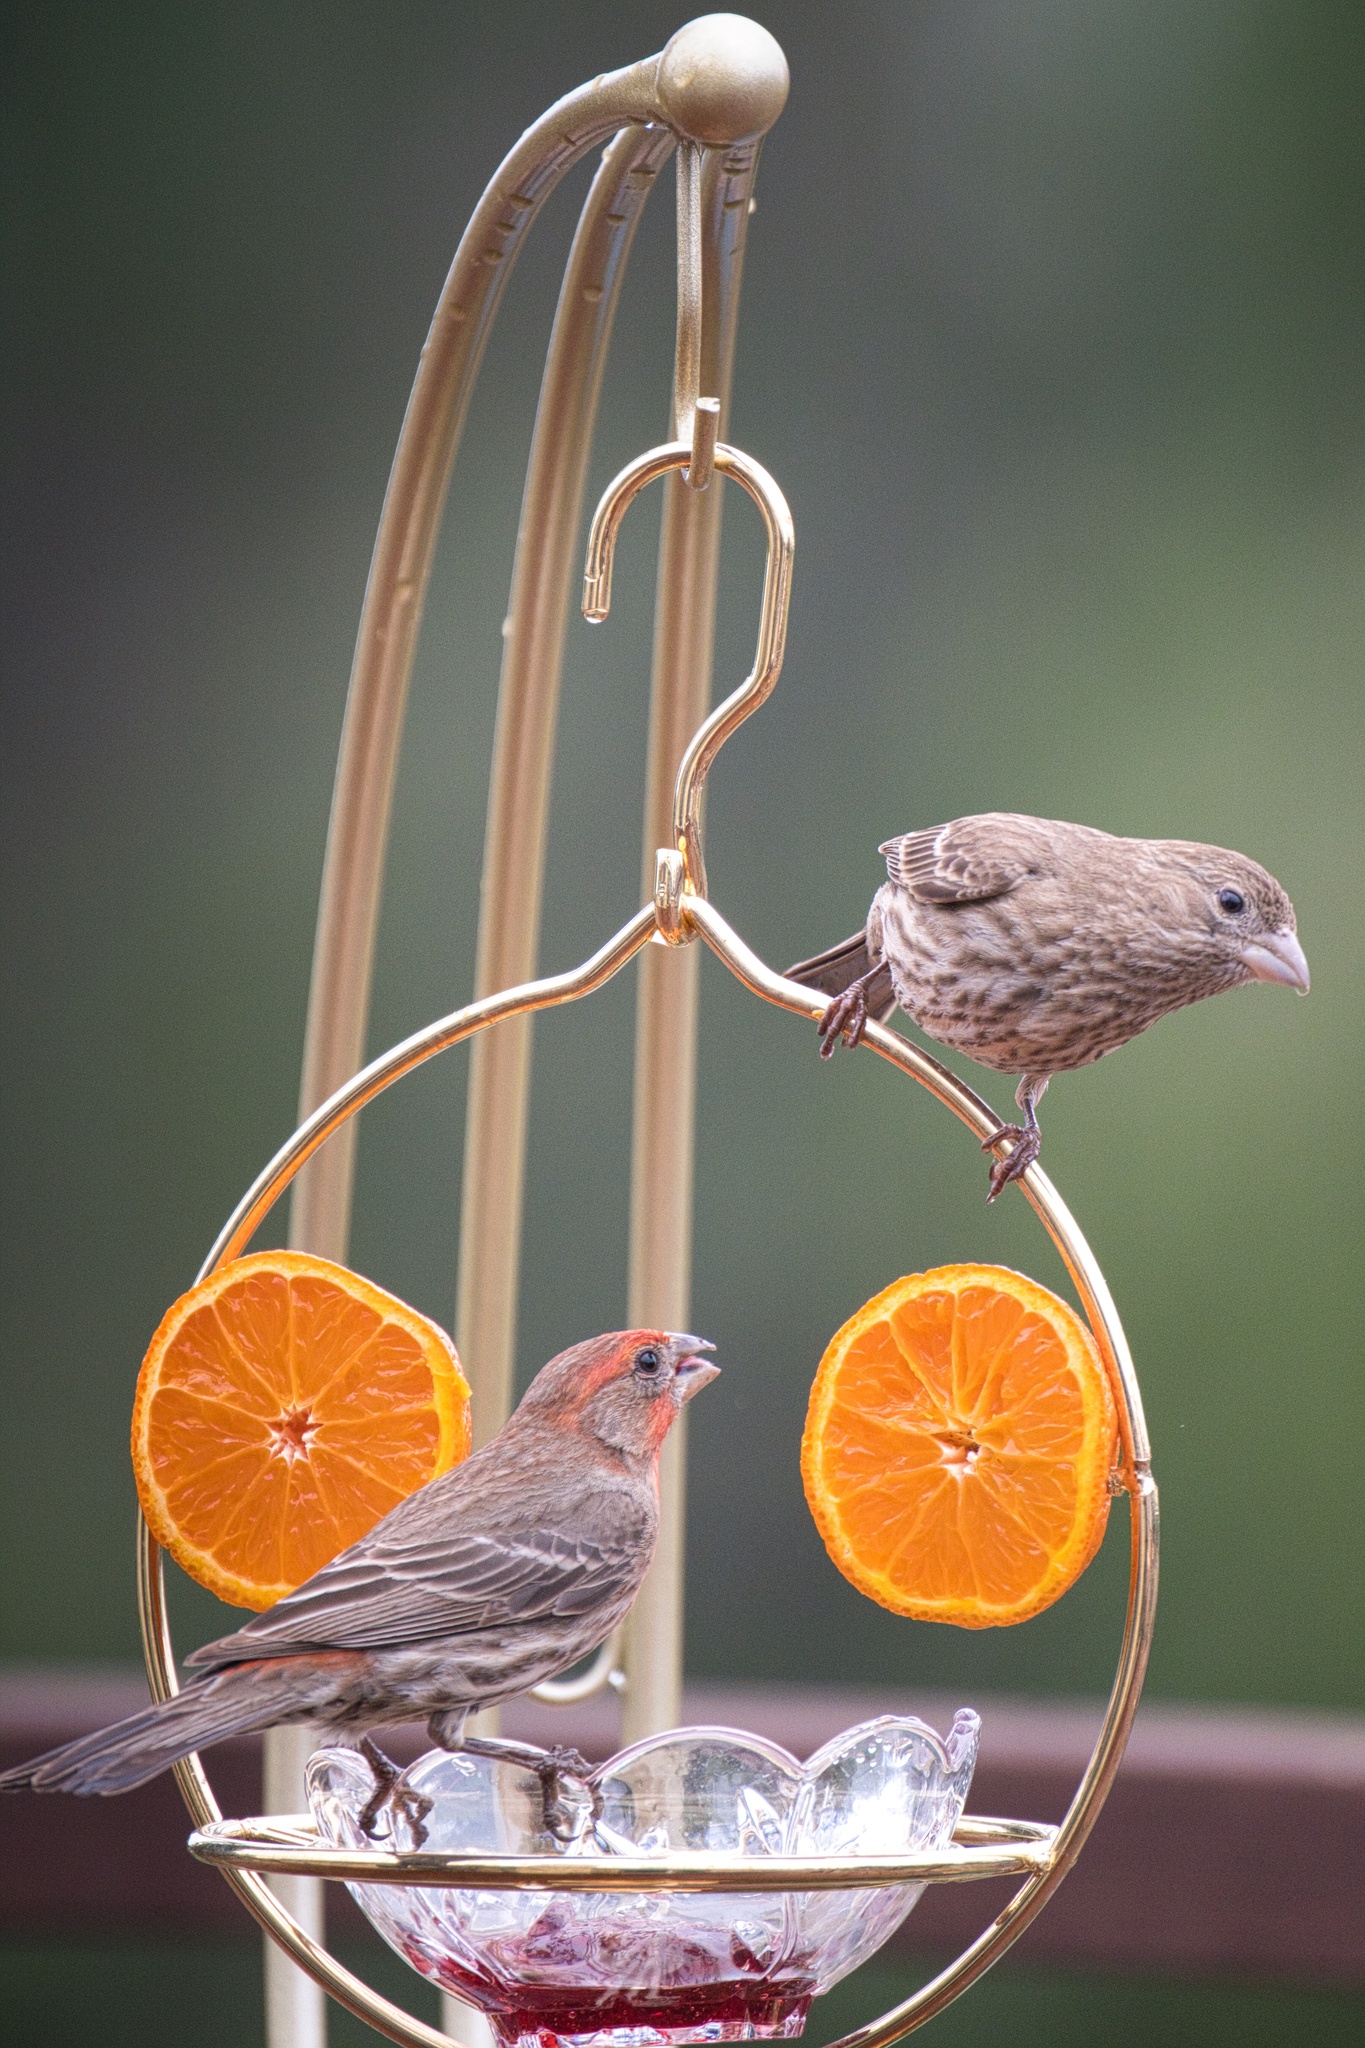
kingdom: Animalia
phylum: Chordata
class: Aves
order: Passeriformes
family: Fringillidae
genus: Haemorhous
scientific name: Haemorhous mexicanus
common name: House finch
